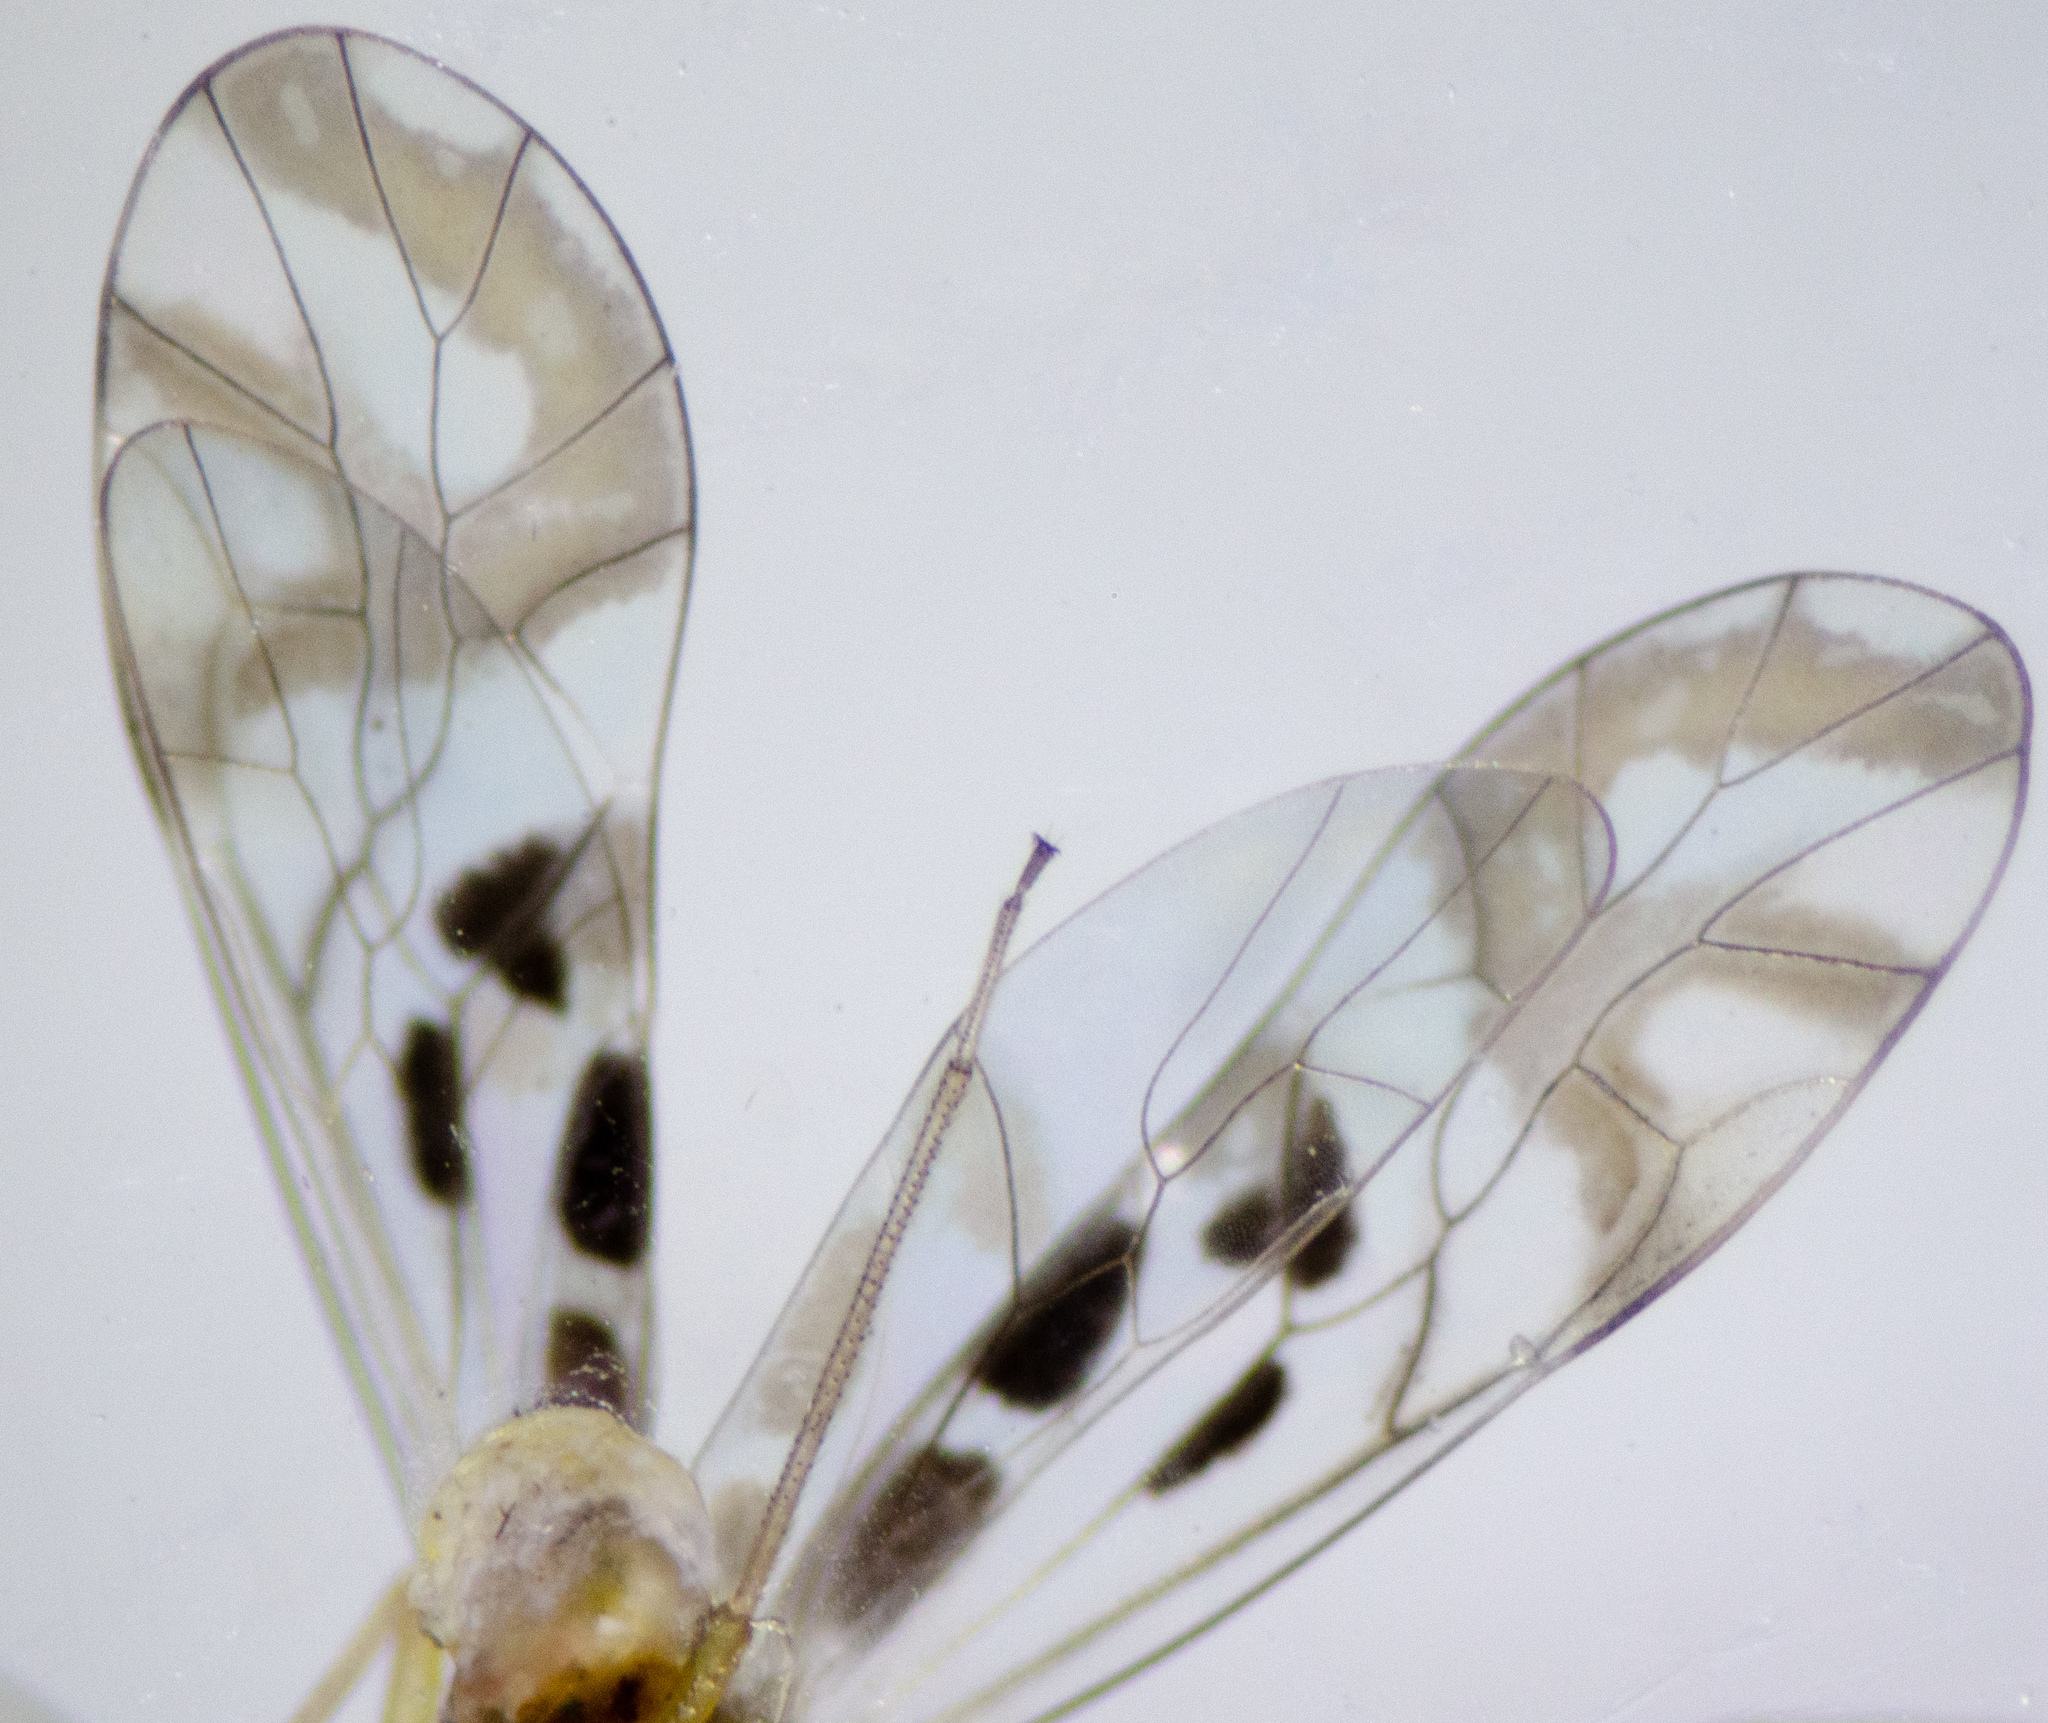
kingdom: Animalia
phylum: Arthropoda
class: Insecta
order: Psocodea
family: Stenopsocidae
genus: Graphopsocus
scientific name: Graphopsocus cruciatus
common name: Lizard bark louse
